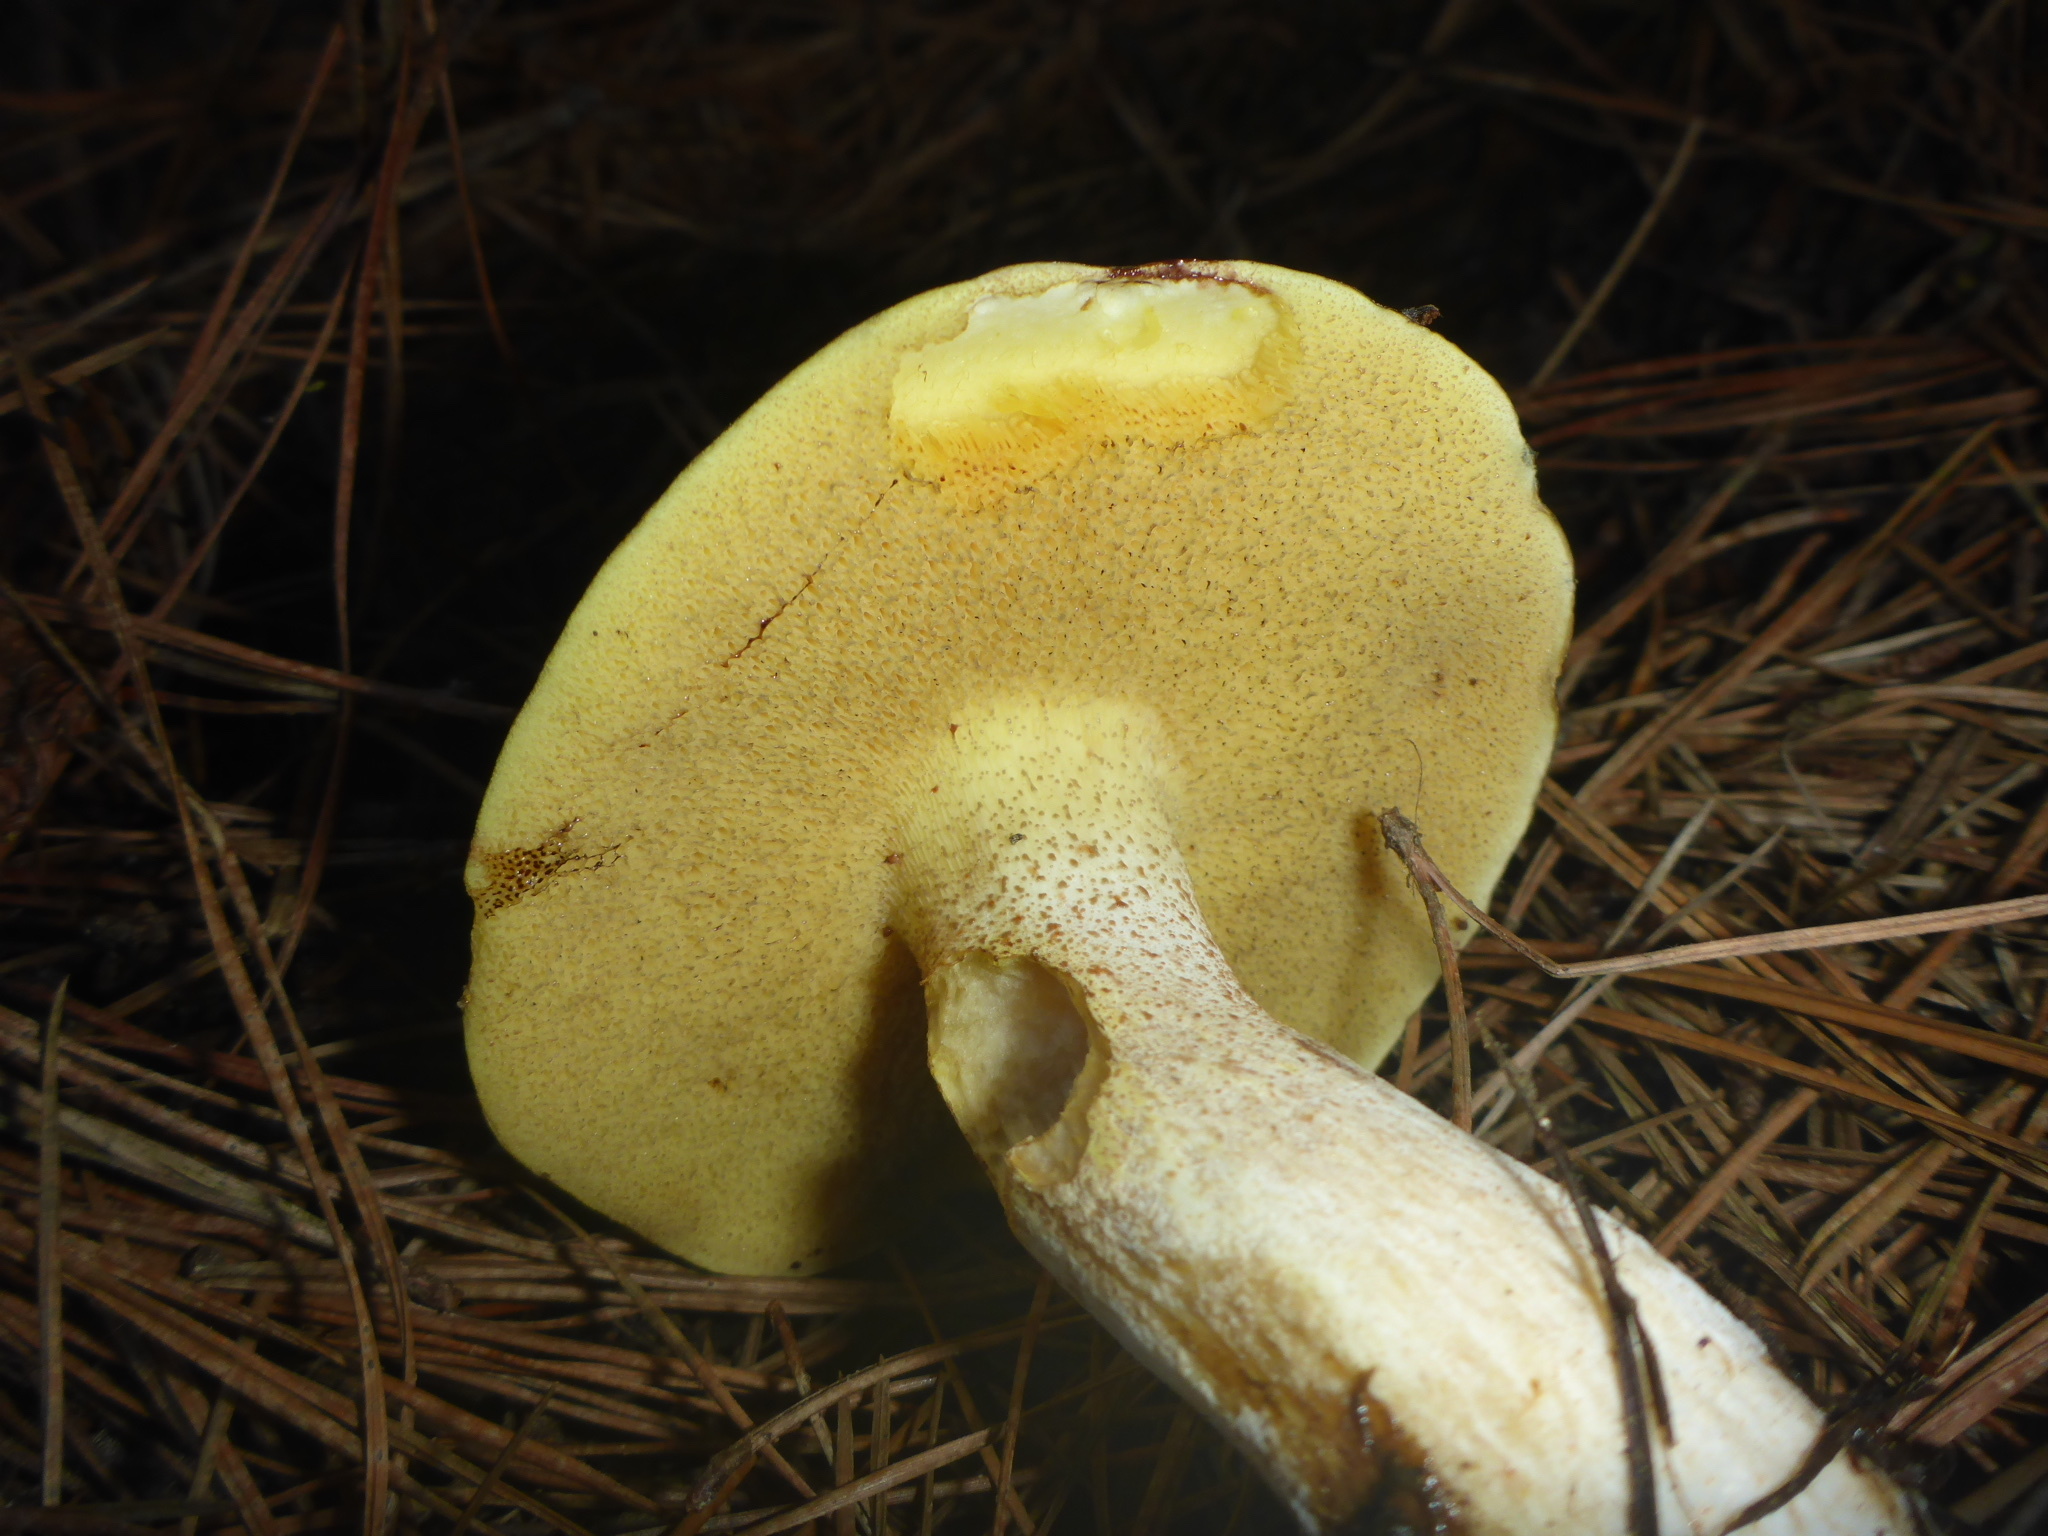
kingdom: Fungi
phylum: Basidiomycota
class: Agaricomycetes
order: Boletales
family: Suillaceae
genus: Suillus
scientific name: Suillus pungens
